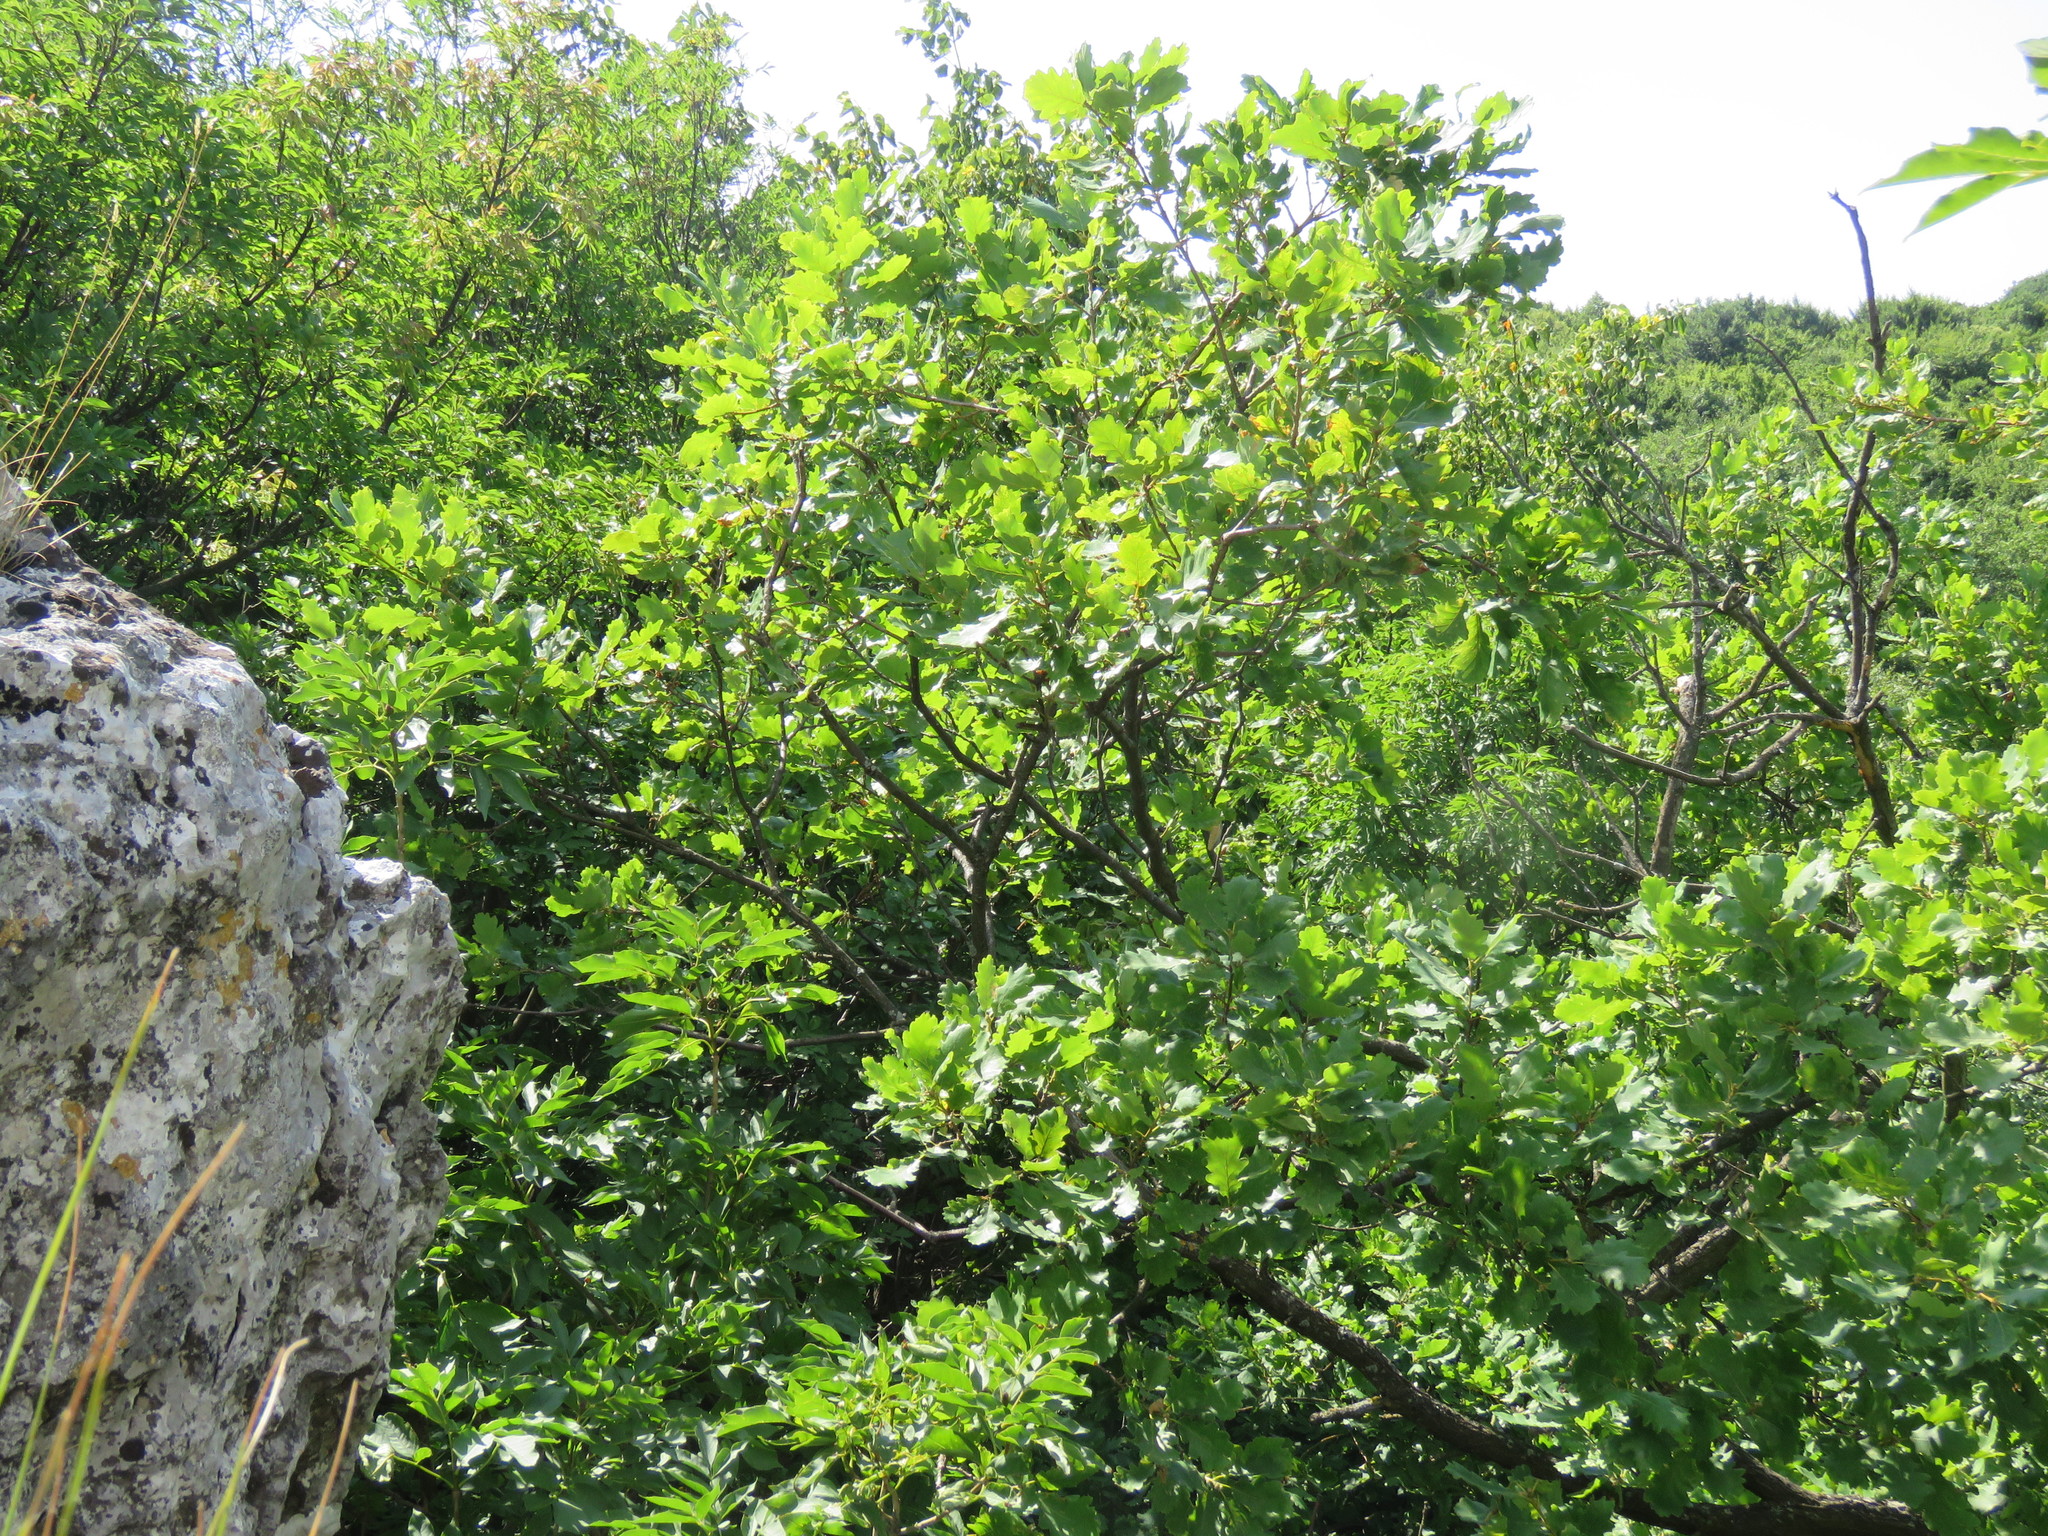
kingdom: Plantae
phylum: Tracheophyta
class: Magnoliopsida
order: Fagales
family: Fagaceae
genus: Quercus
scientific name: Quercus pubescens
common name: Downy oak
